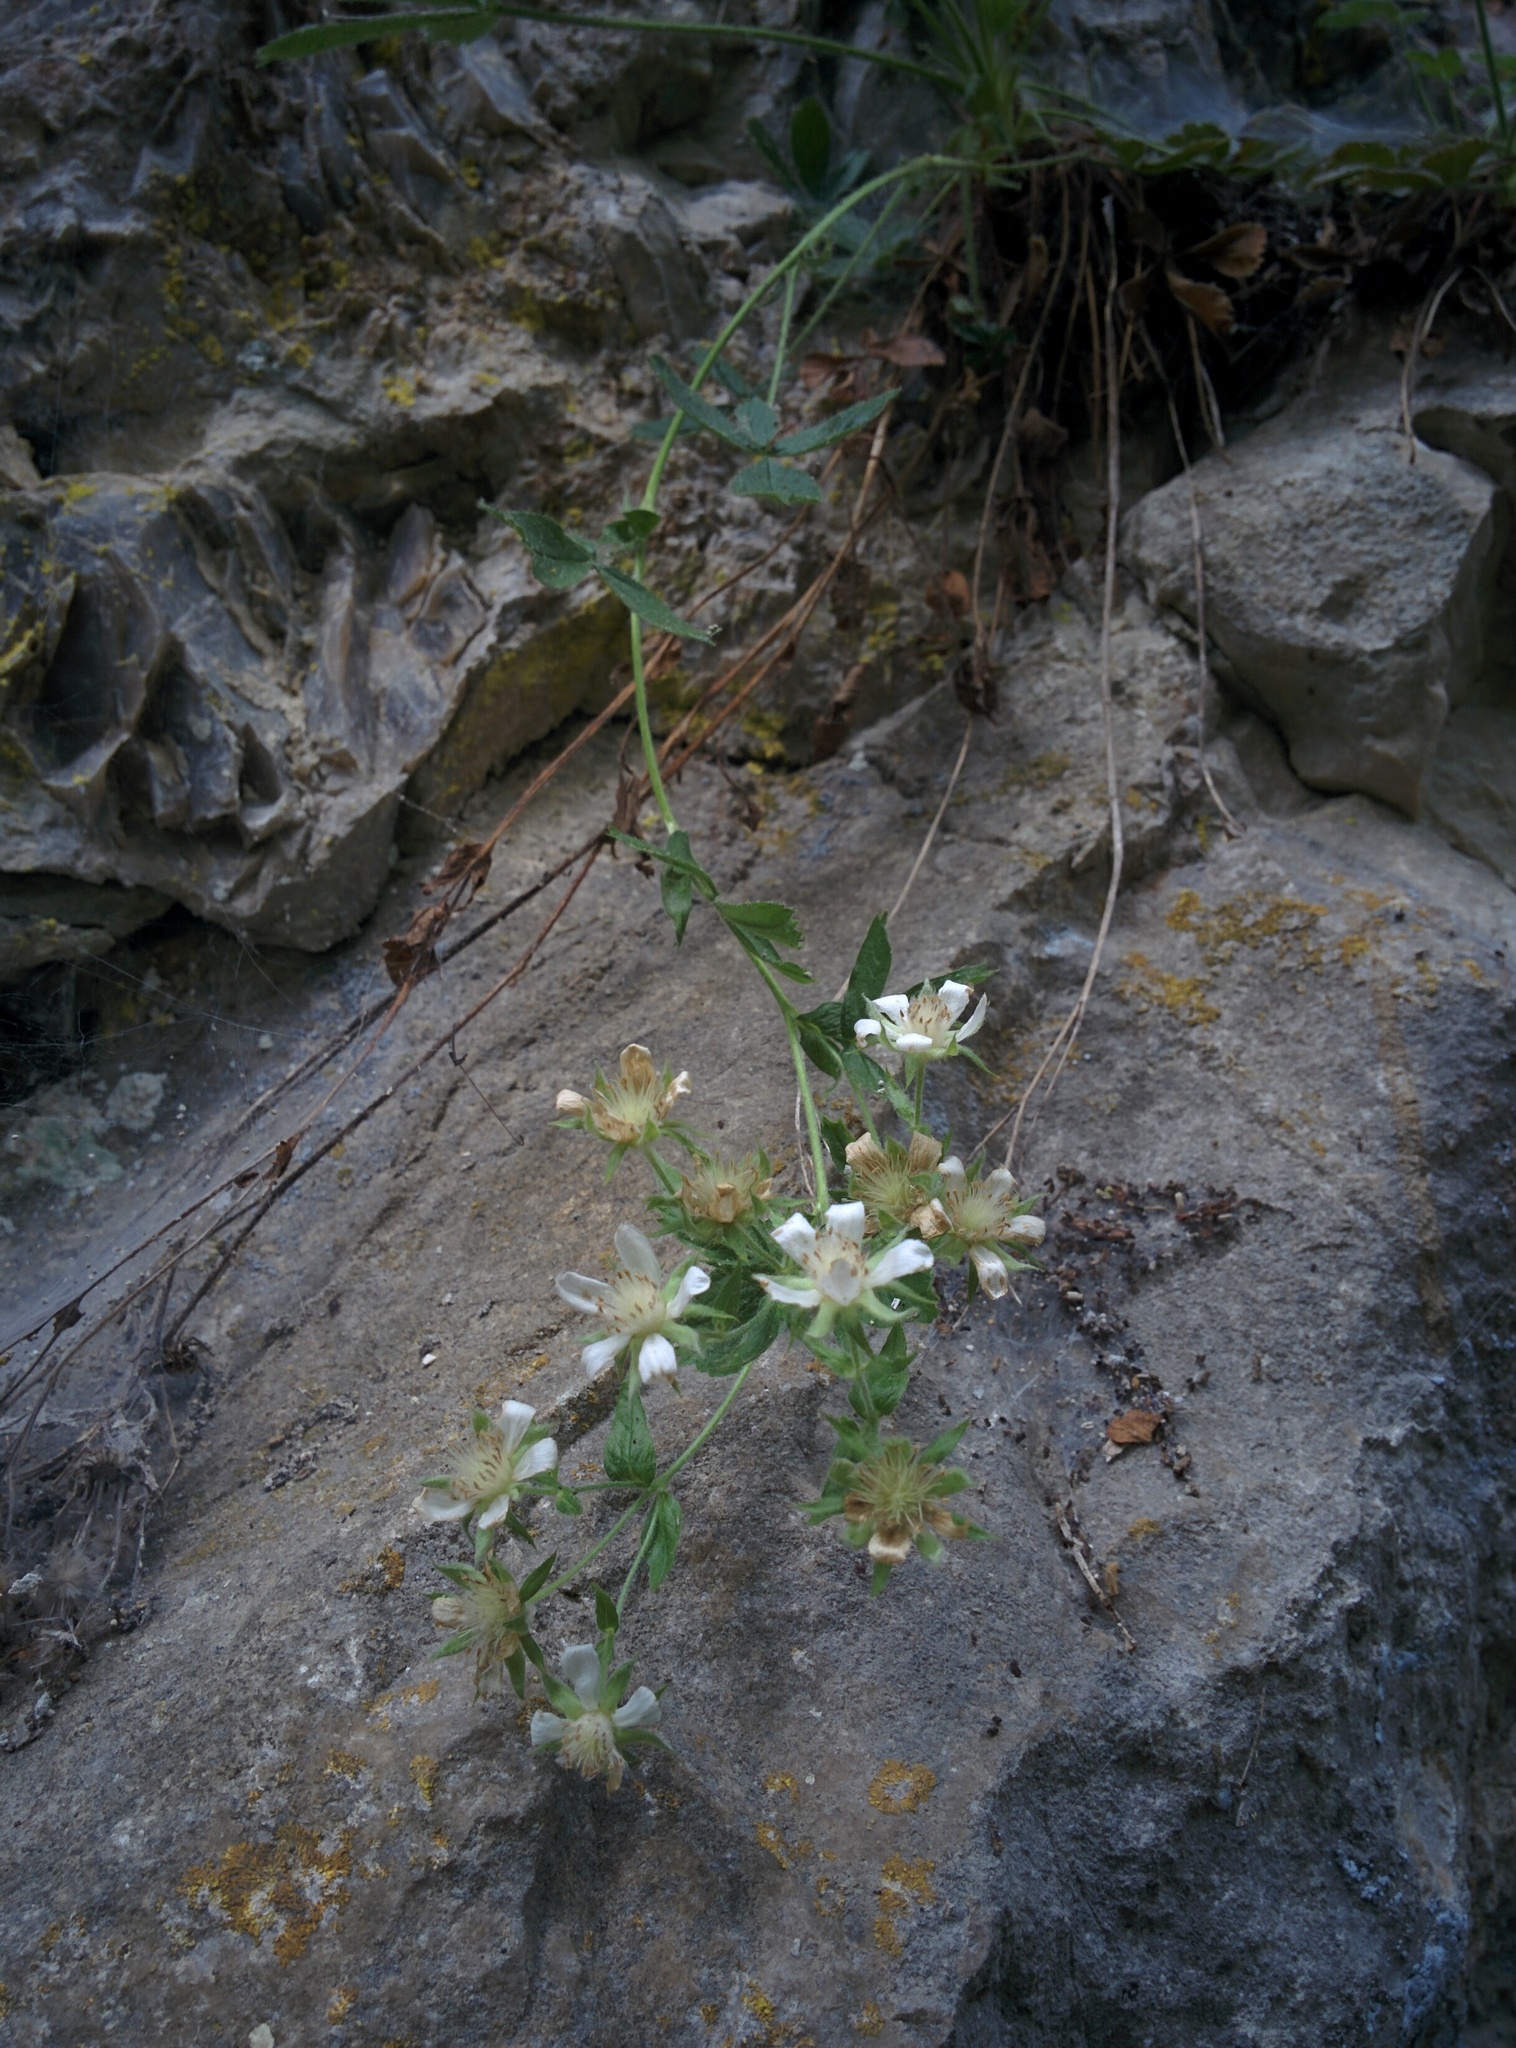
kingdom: Plantae
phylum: Tracheophyta
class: Magnoliopsida
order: Rosales
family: Rosaceae
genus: Potentilla
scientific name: Potentilla caulescens
